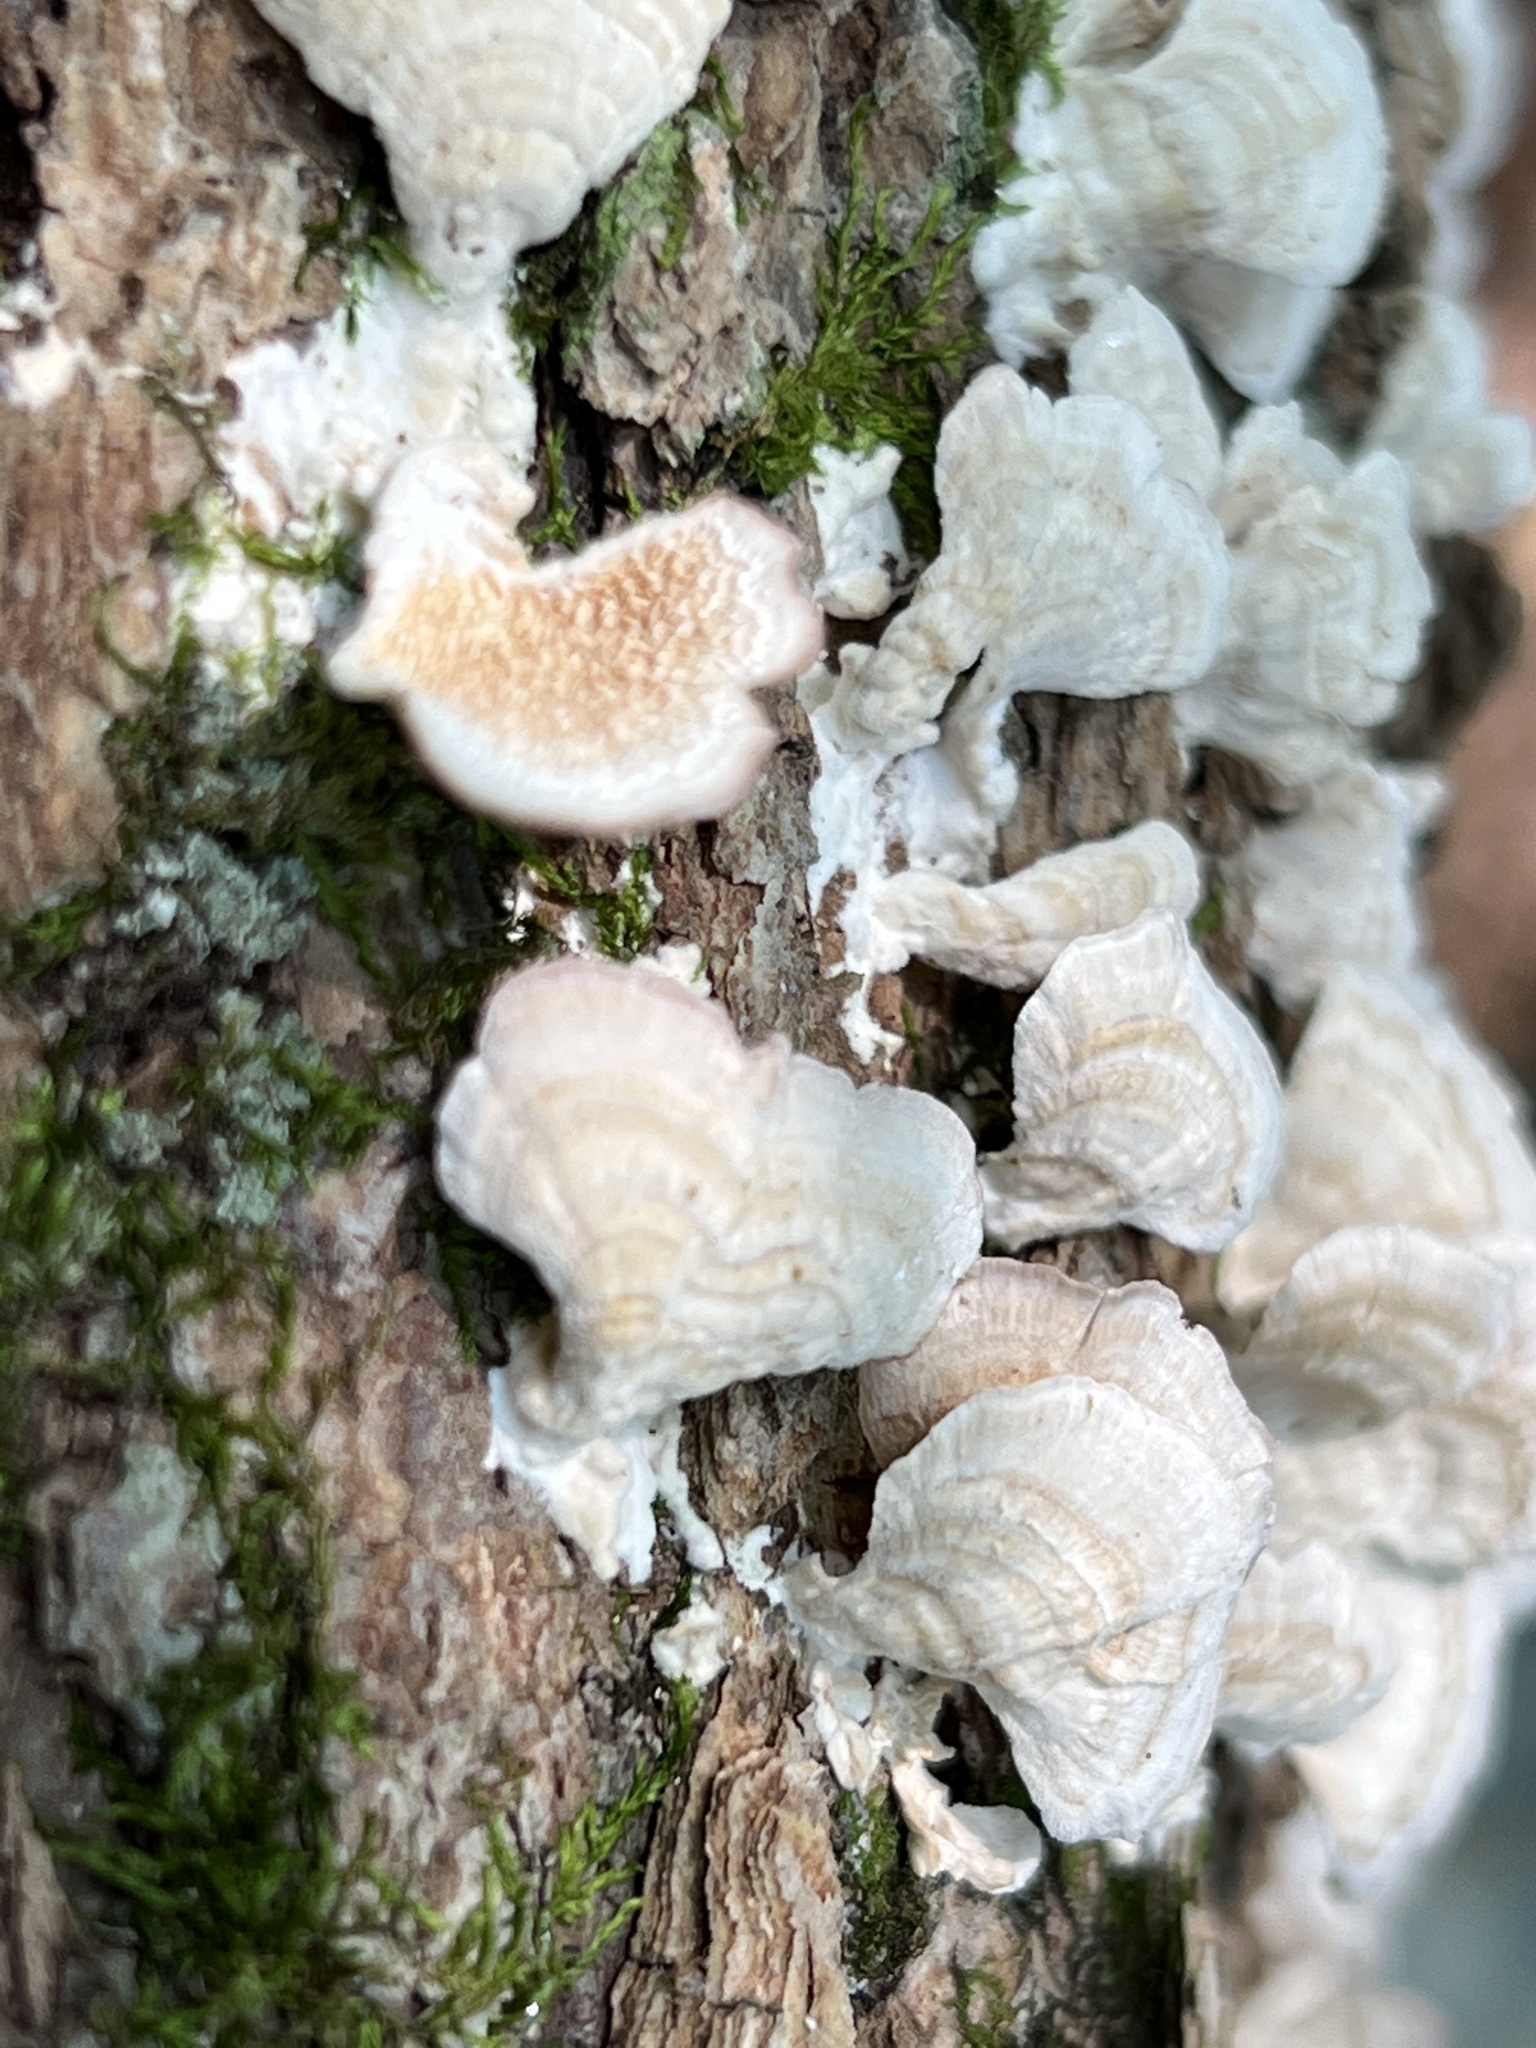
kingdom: Fungi
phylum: Basidiomycota
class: Agaricomycetes
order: Hymenochaetales
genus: Trichaptum
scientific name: Trichaptum biforme
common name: Violet-toothed polypore
